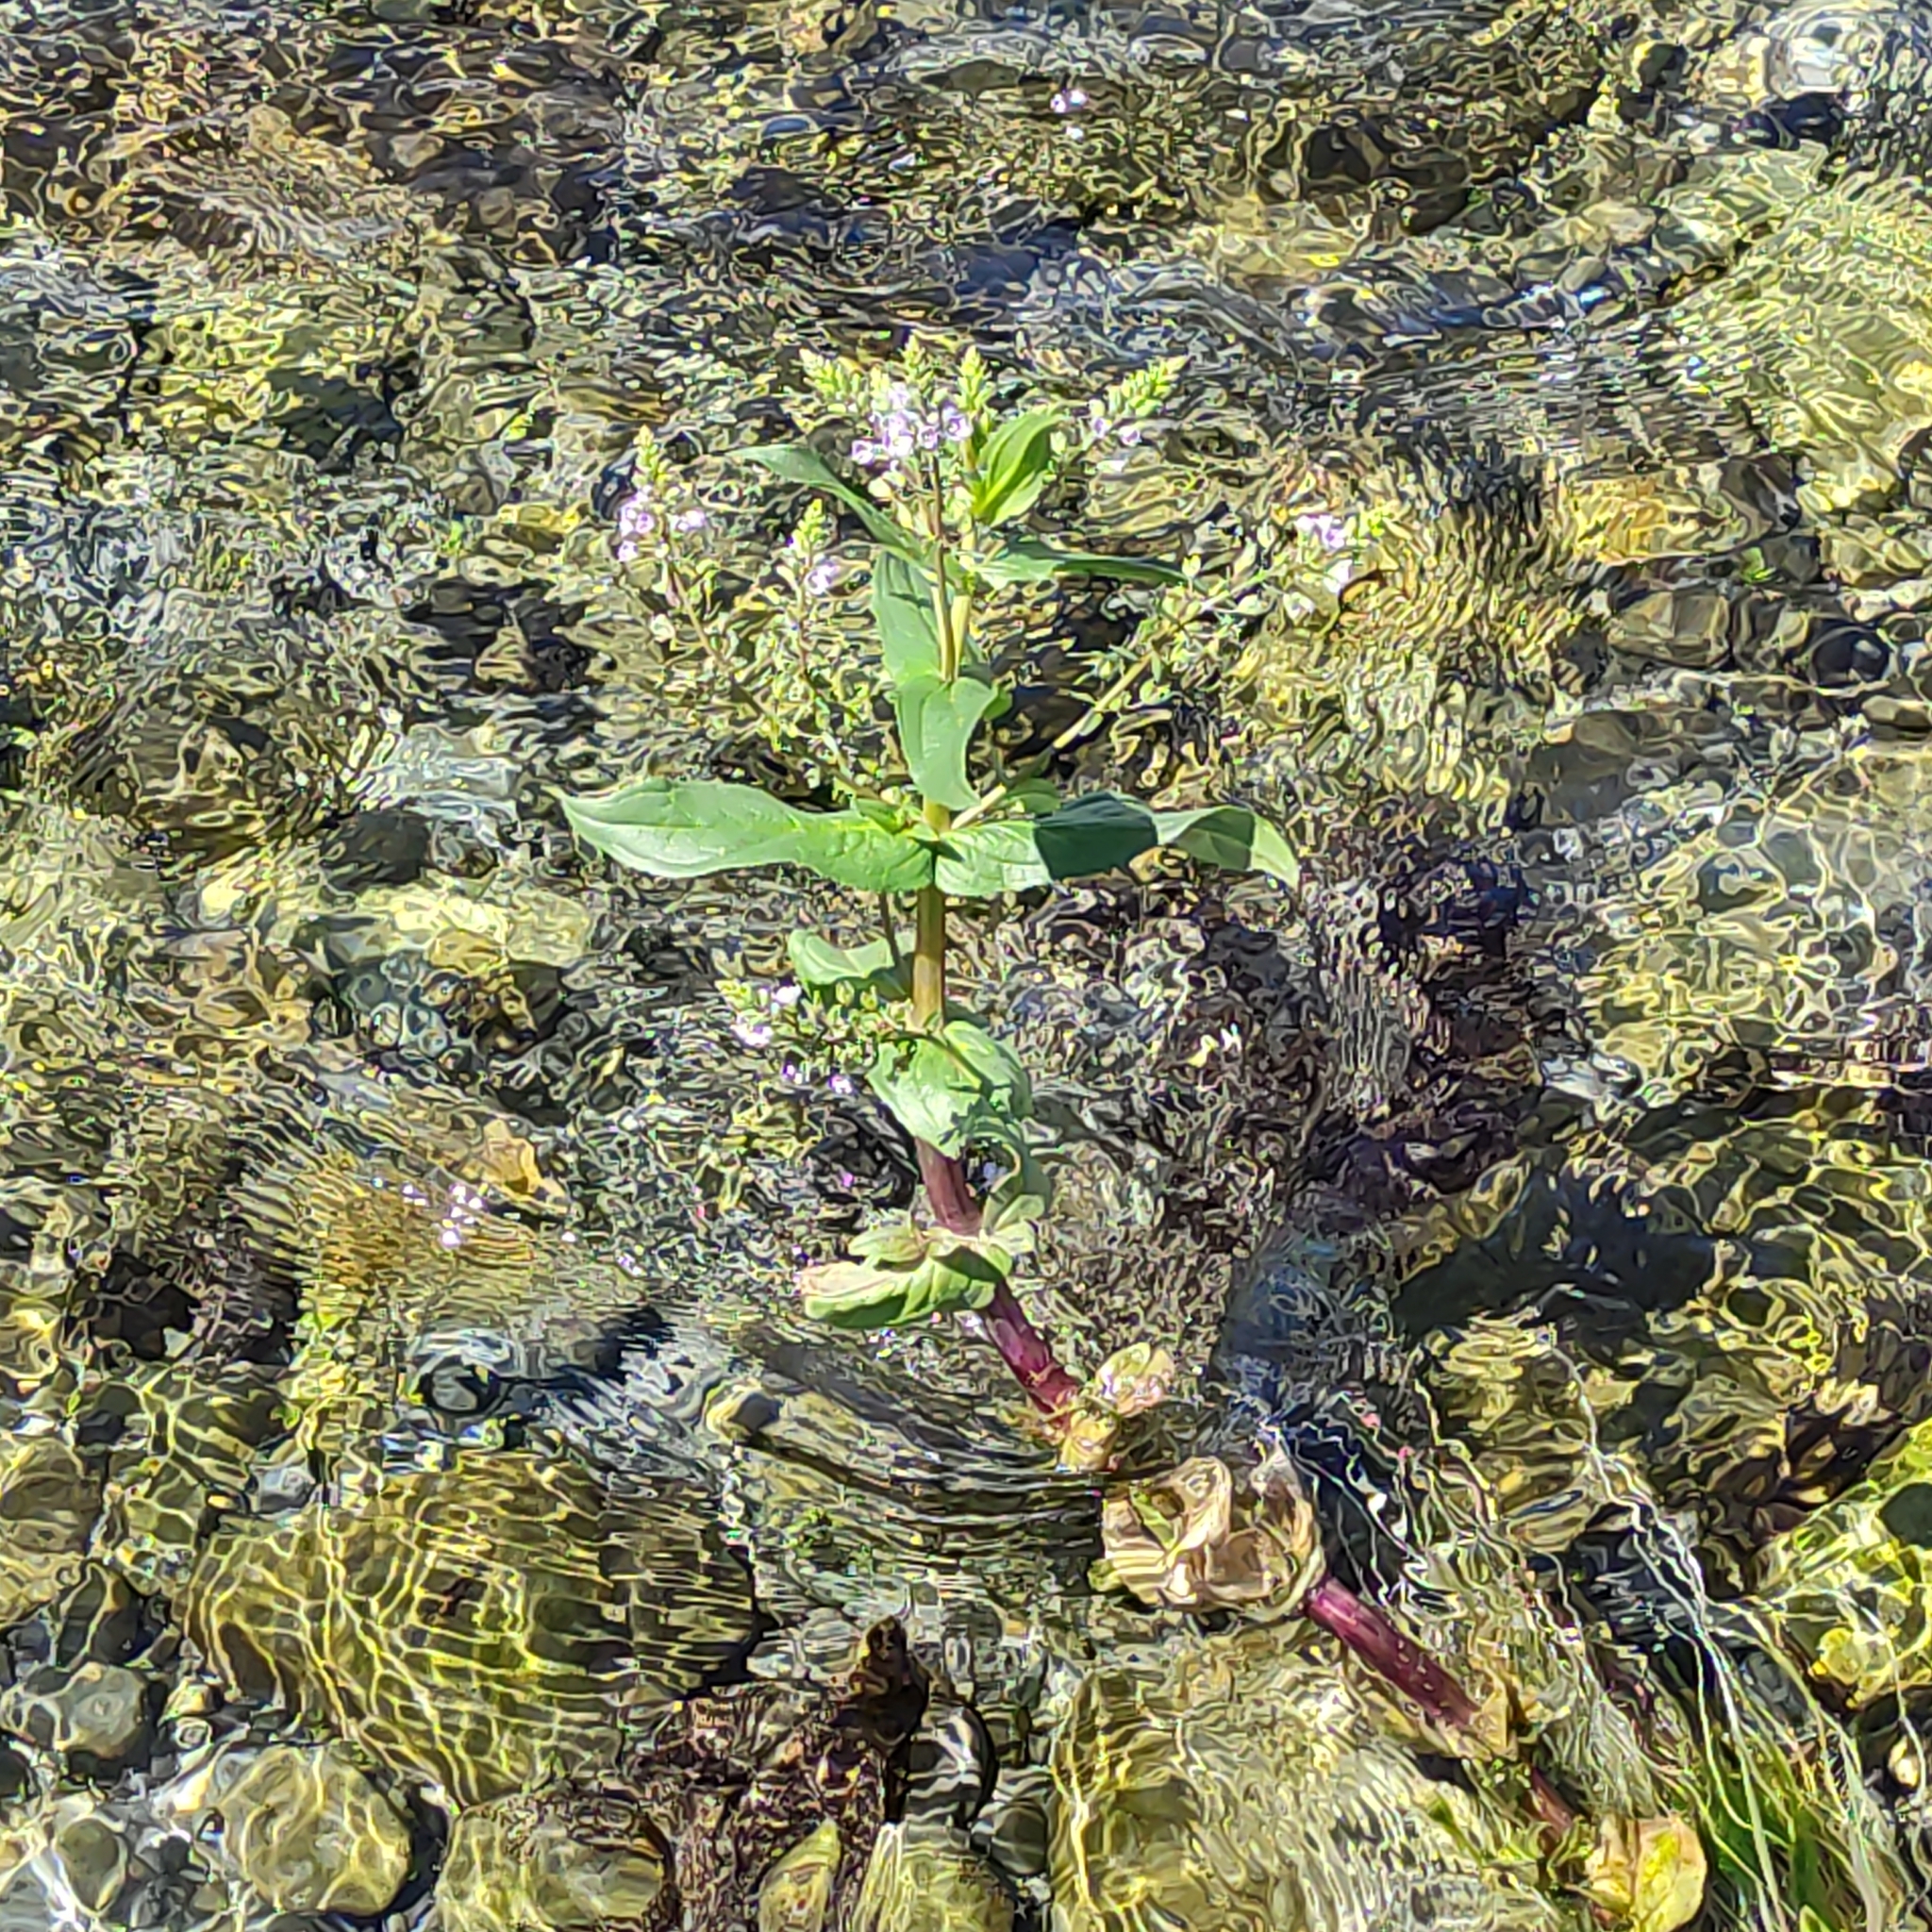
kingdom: Plantae
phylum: Tracheophyta
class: Magnoliopsida
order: Lamiales
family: Plantaginaceae
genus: Veronica
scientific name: Veronica anagallis-aquatica
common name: Water speedwell
